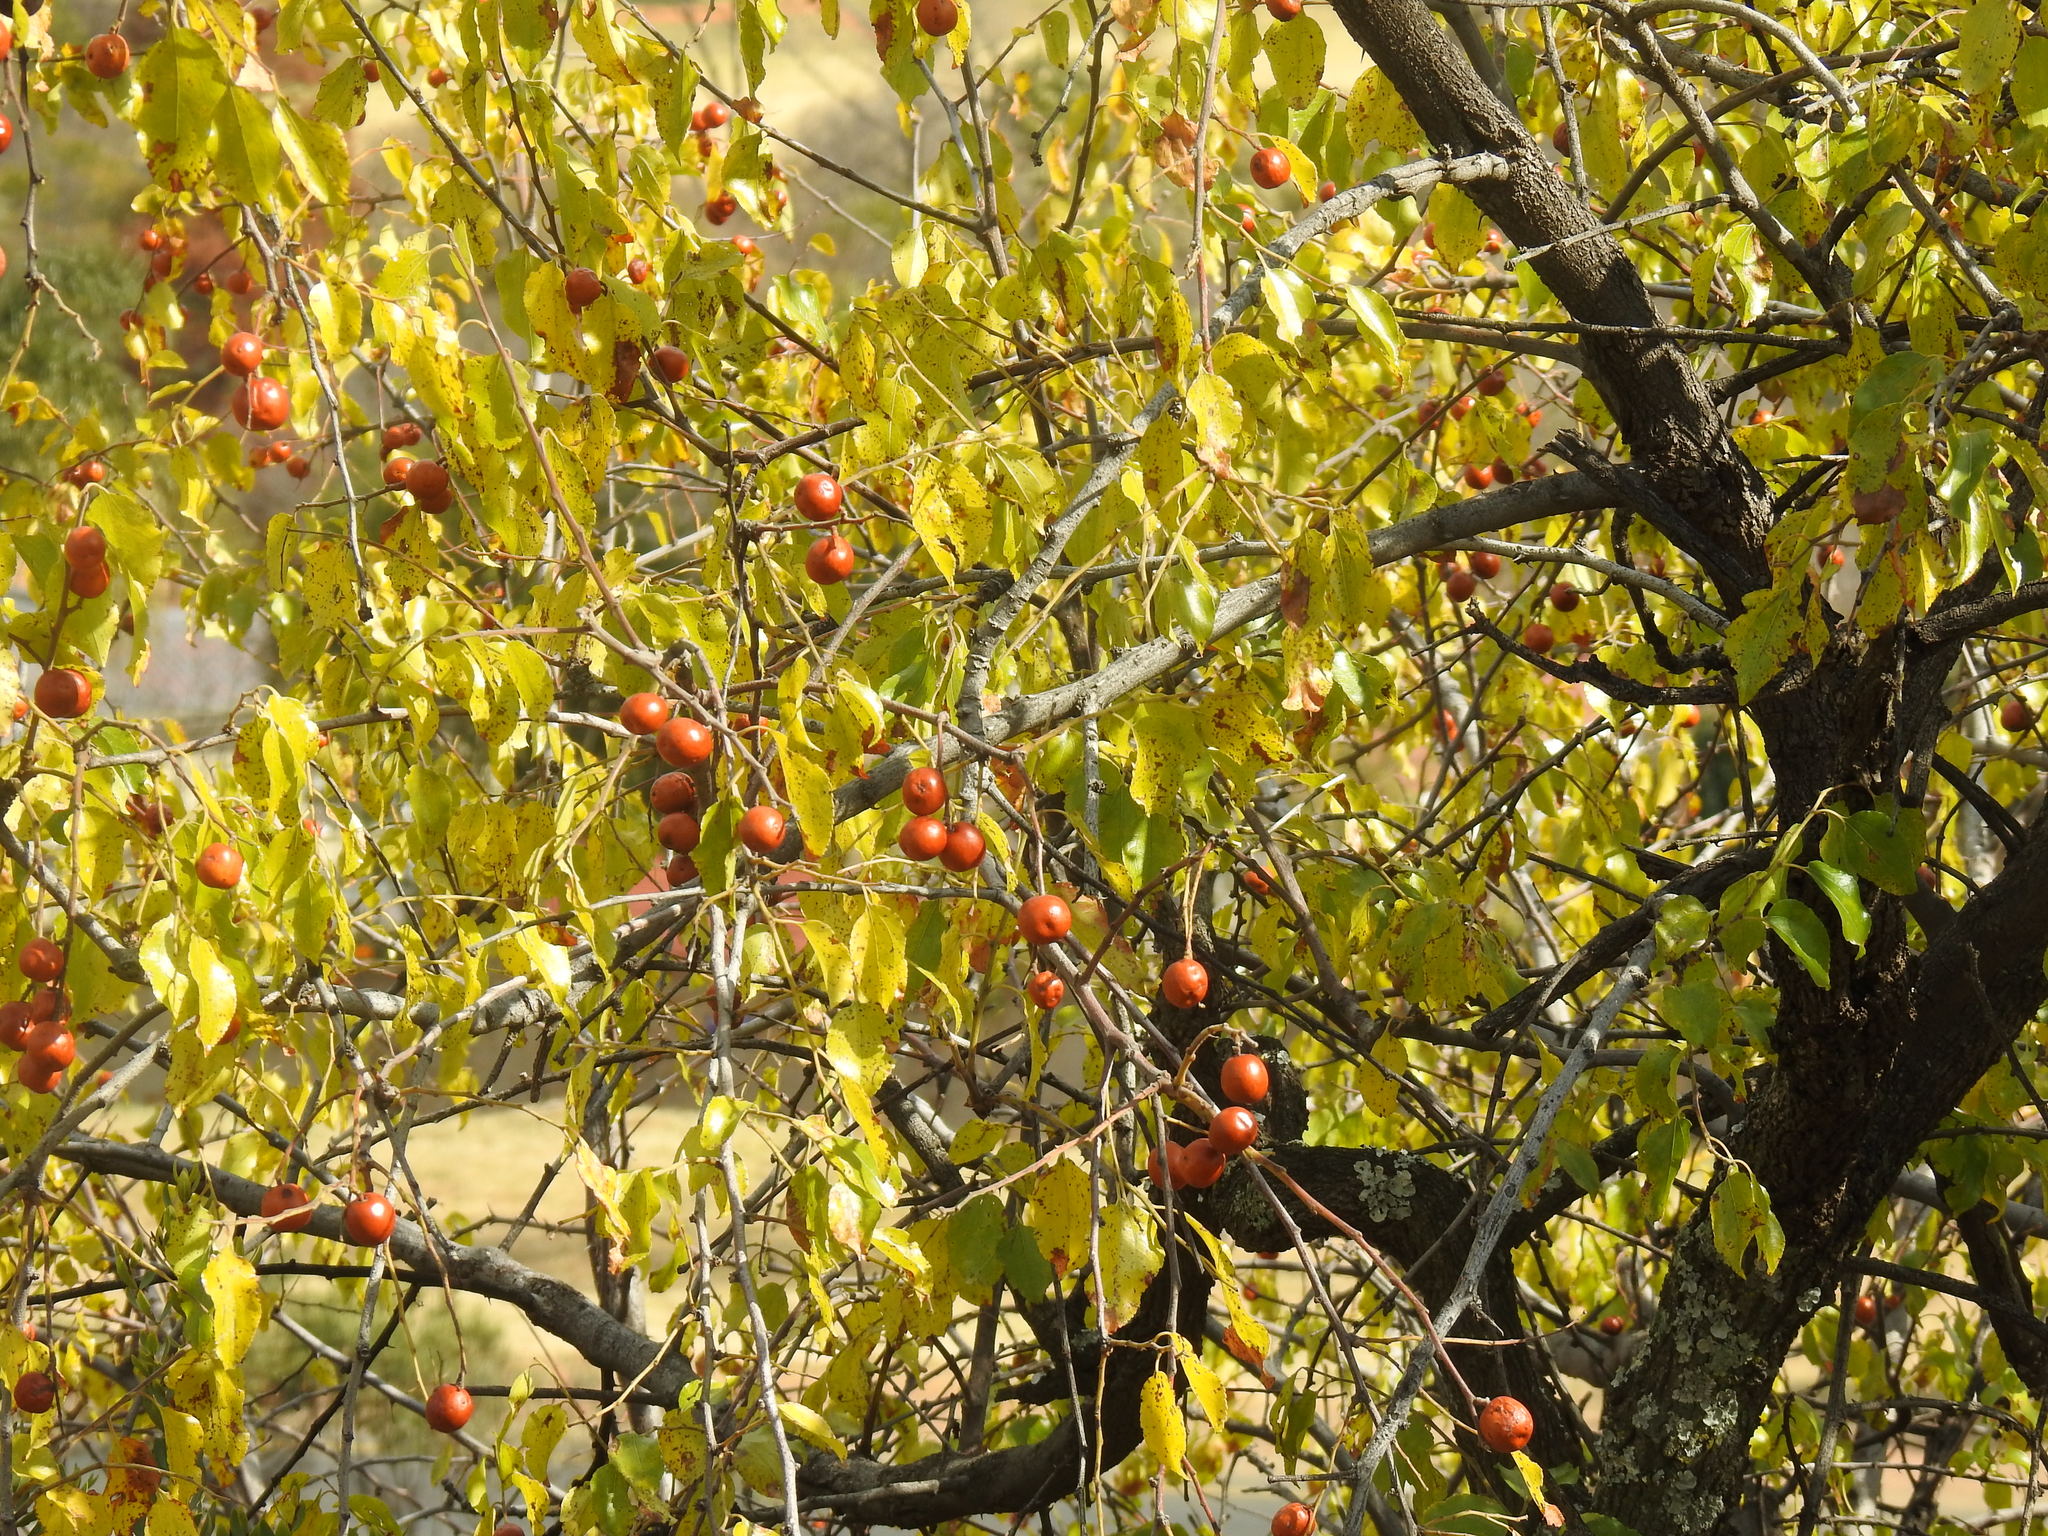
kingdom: Plantae
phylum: Tracheophyta
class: Magnoliopsida
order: Rosales
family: Rhamnaceae
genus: Ziziphus
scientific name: Ziziphus mucronata
